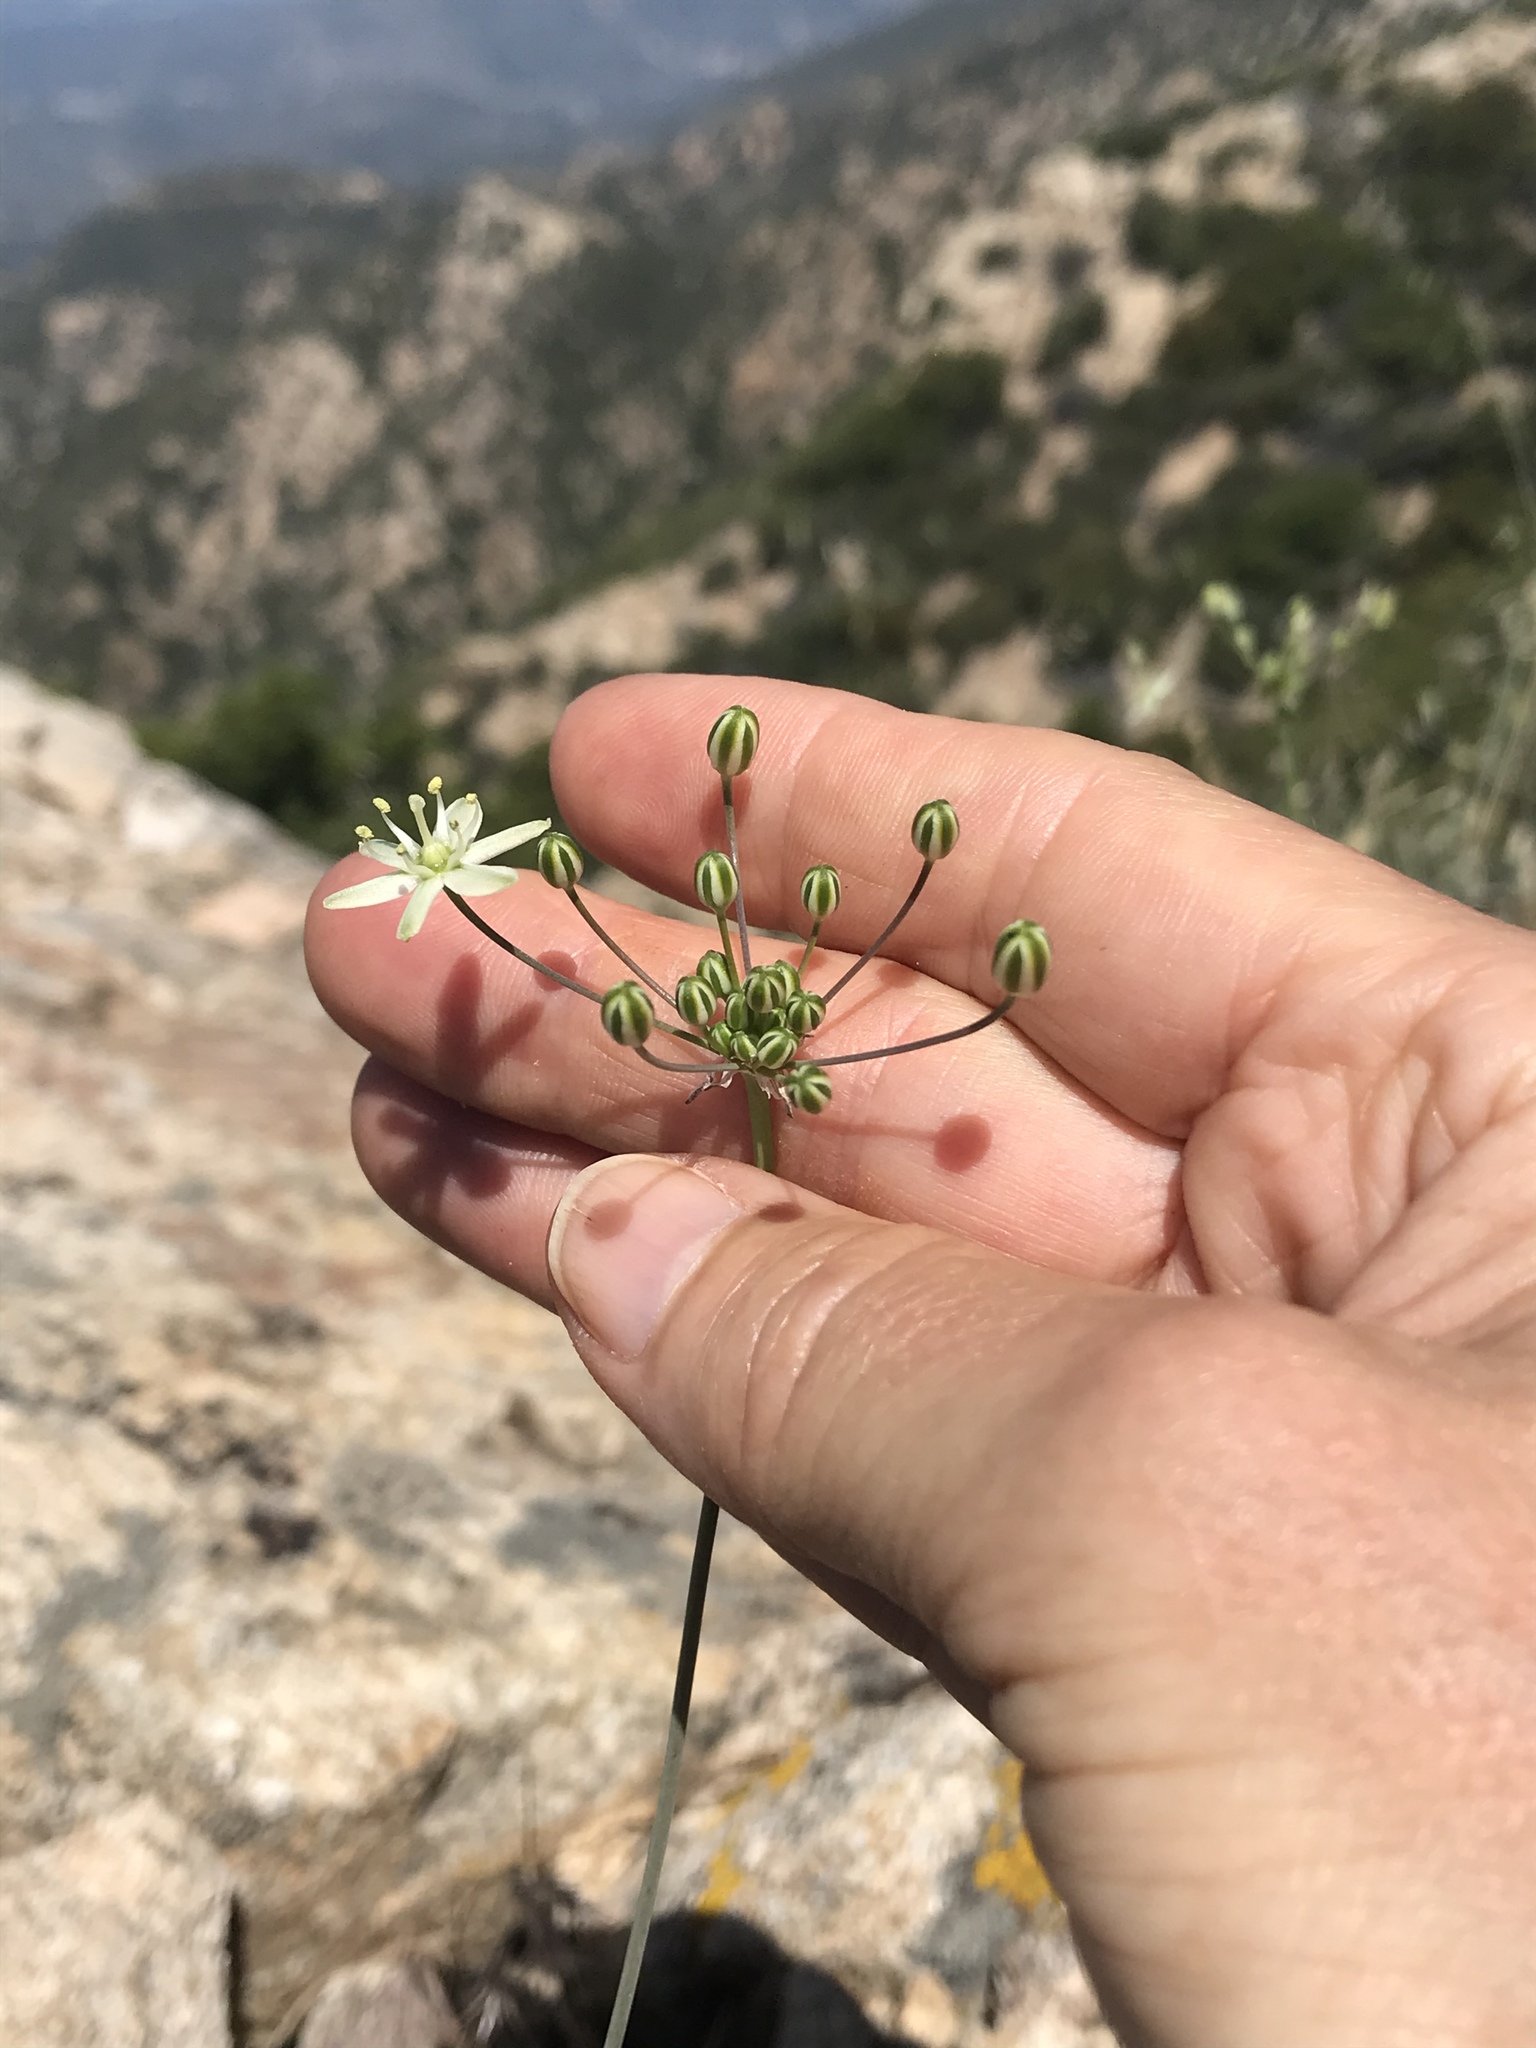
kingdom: Plantae
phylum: Tracheophyta
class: Liliopsida
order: Asparagales
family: Asparagaceae
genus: Muilla
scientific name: Muilla maritima
